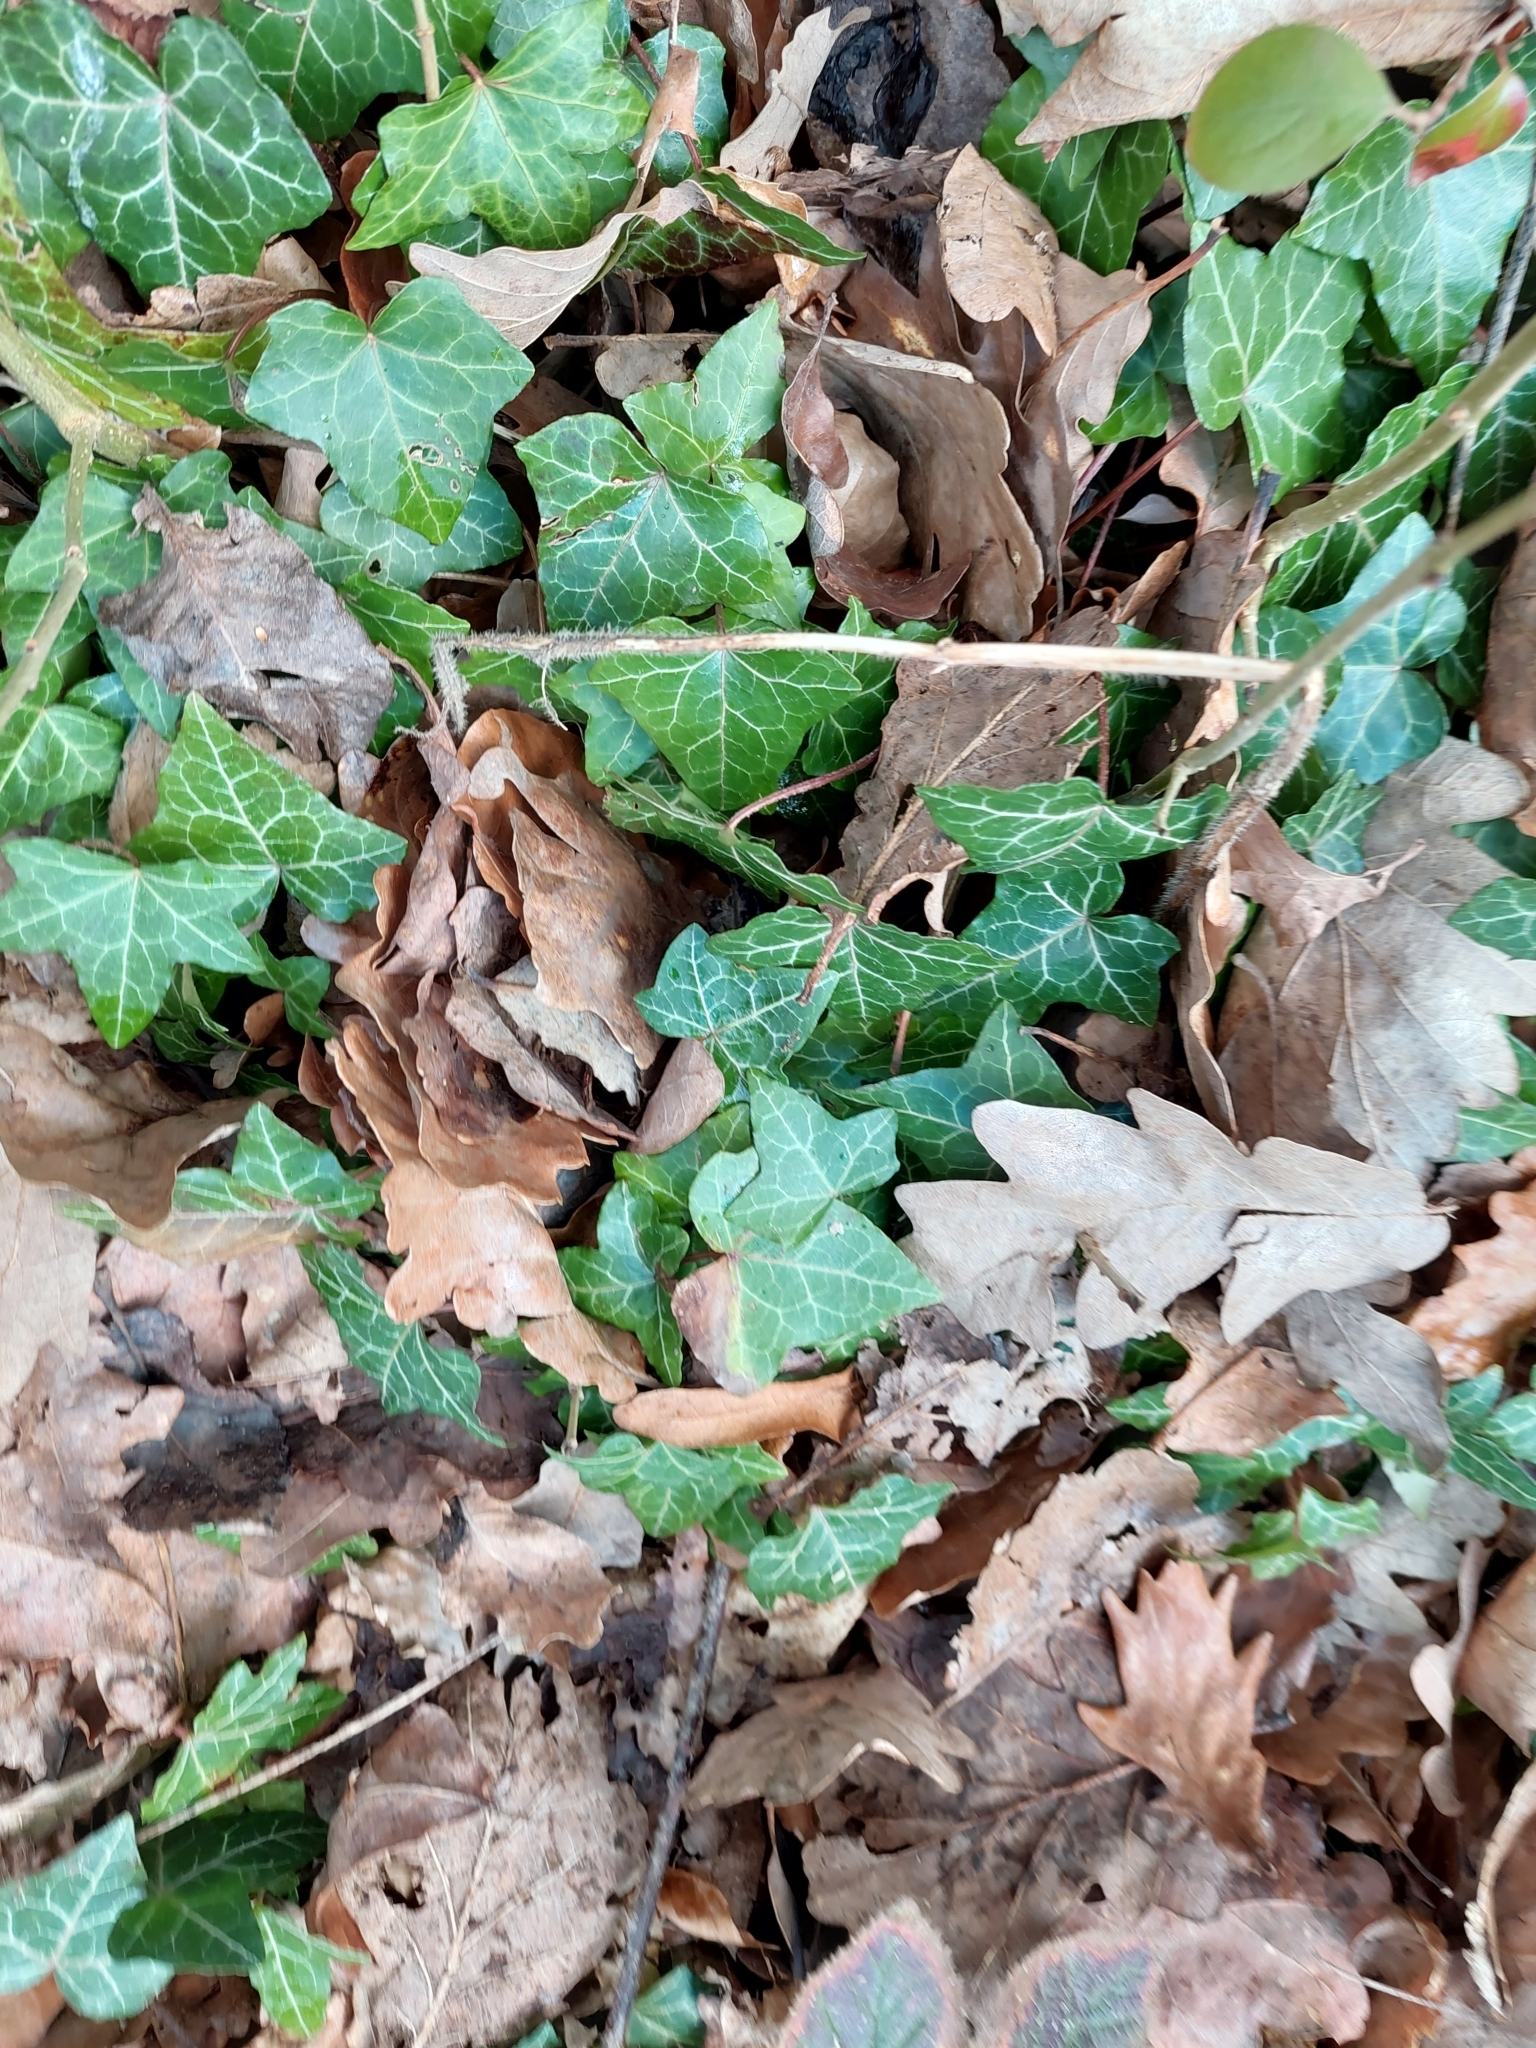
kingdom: Plantae
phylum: Tracheophyta
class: Magnoliopsida
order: Apiales
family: Araliaceae
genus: Hedera
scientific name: Hedera helix
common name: Ivy
